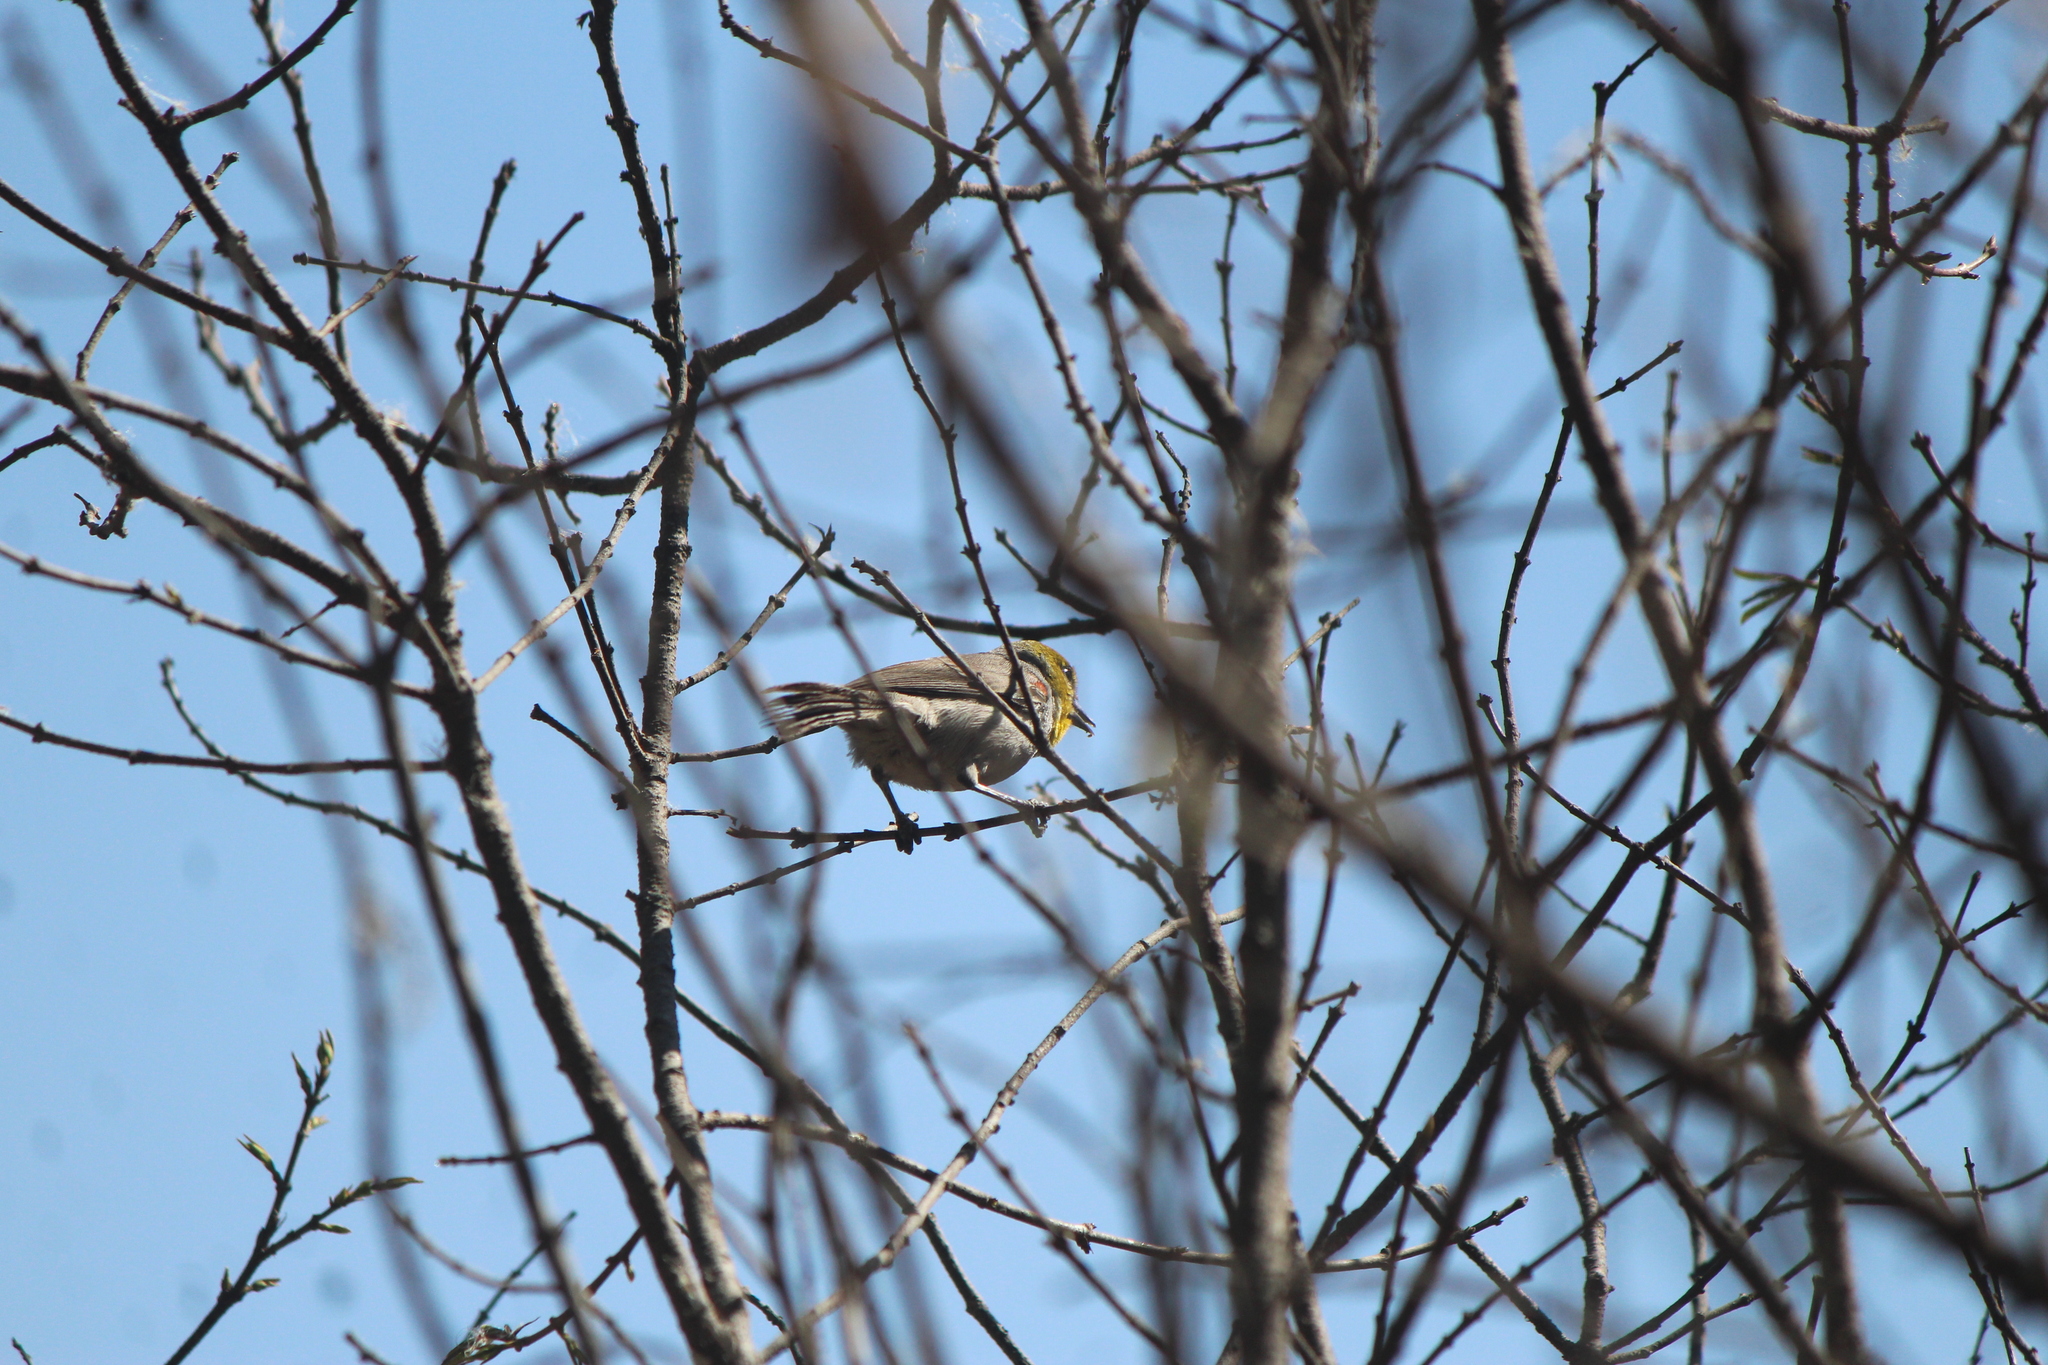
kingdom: Animalia
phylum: Chordata
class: Aves
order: Passeriformes
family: Remizidae
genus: Auriparus
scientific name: Auriparus flaviceps
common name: Verdin
